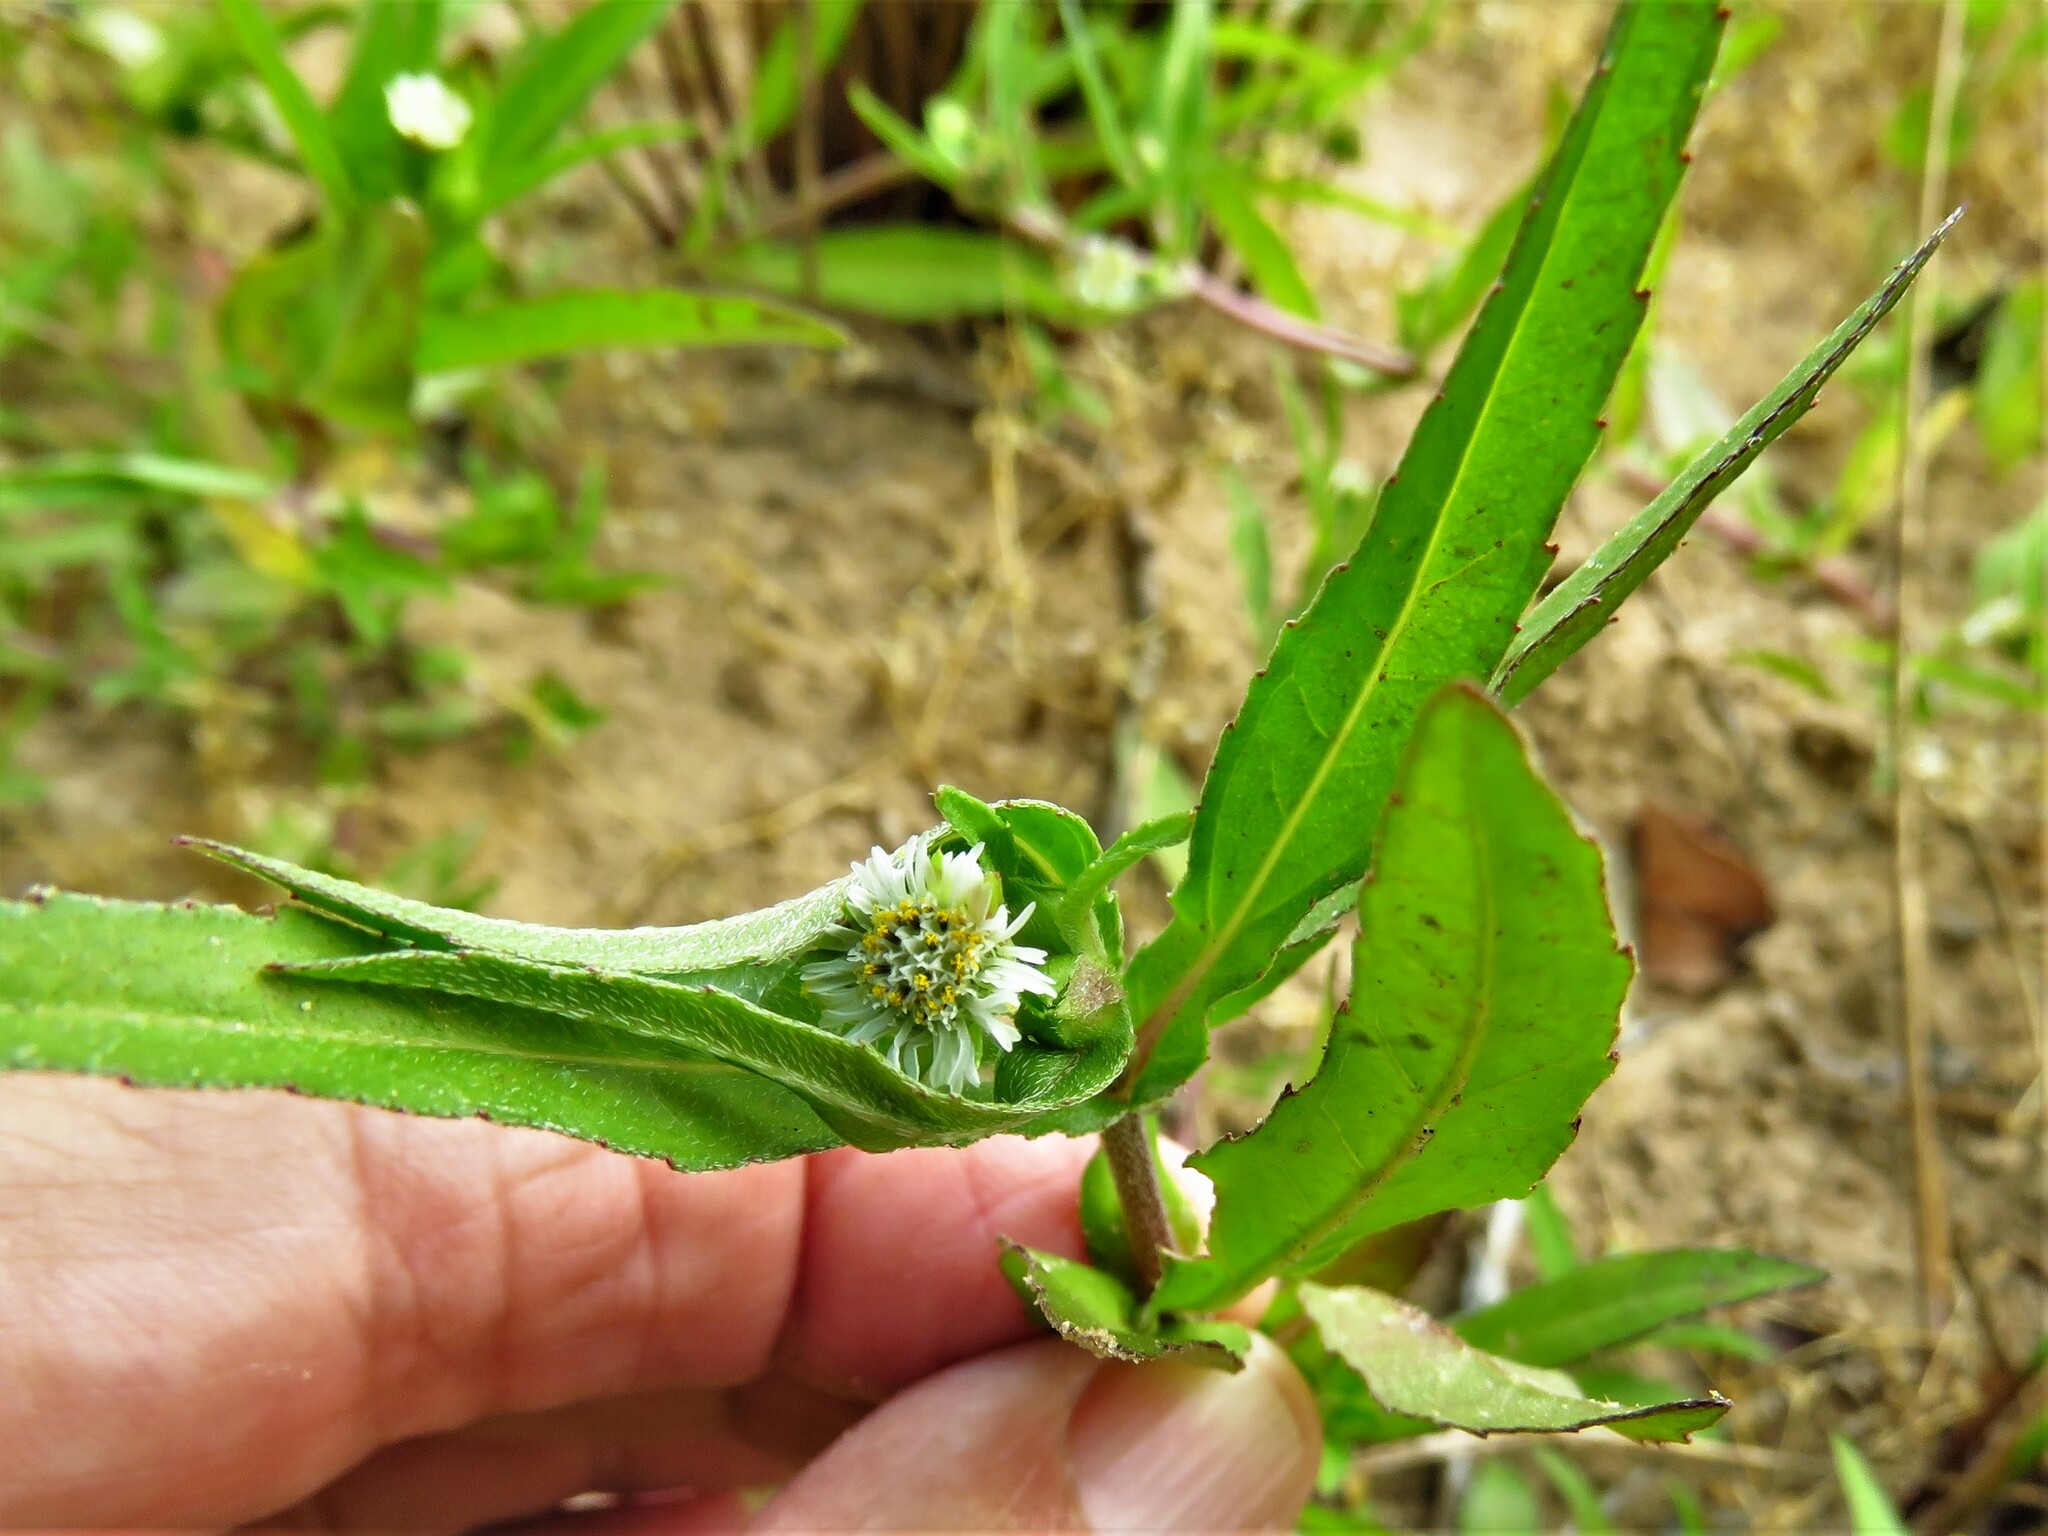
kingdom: Plantae
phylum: Tracheophyta
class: Magnoliopsida
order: Asterales
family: Asteraceae
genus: Eclipta
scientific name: Eclipta prostrata
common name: False daisy
